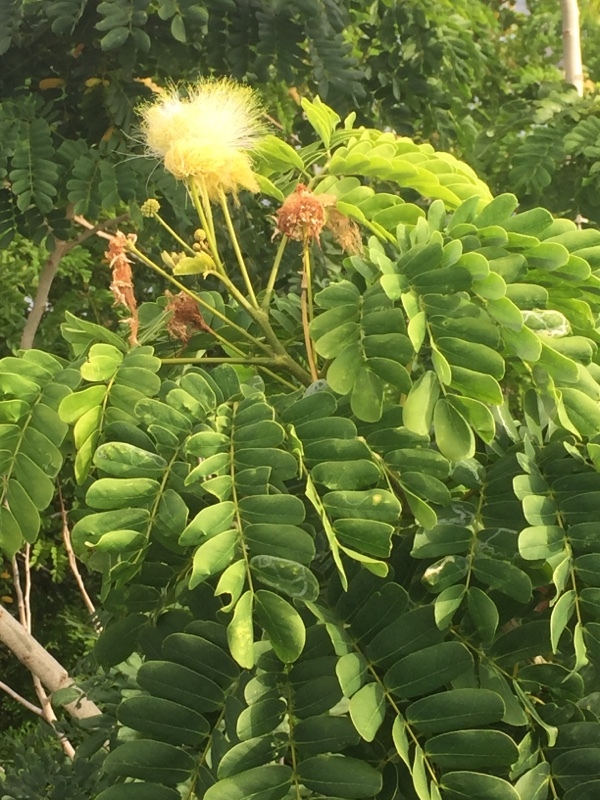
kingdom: Plantae
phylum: Tracheophyta
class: Magnoliopsida
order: Fabales
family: Fabaceae
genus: Albizia
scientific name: Albizia lebbeck
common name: Woman's tongue
